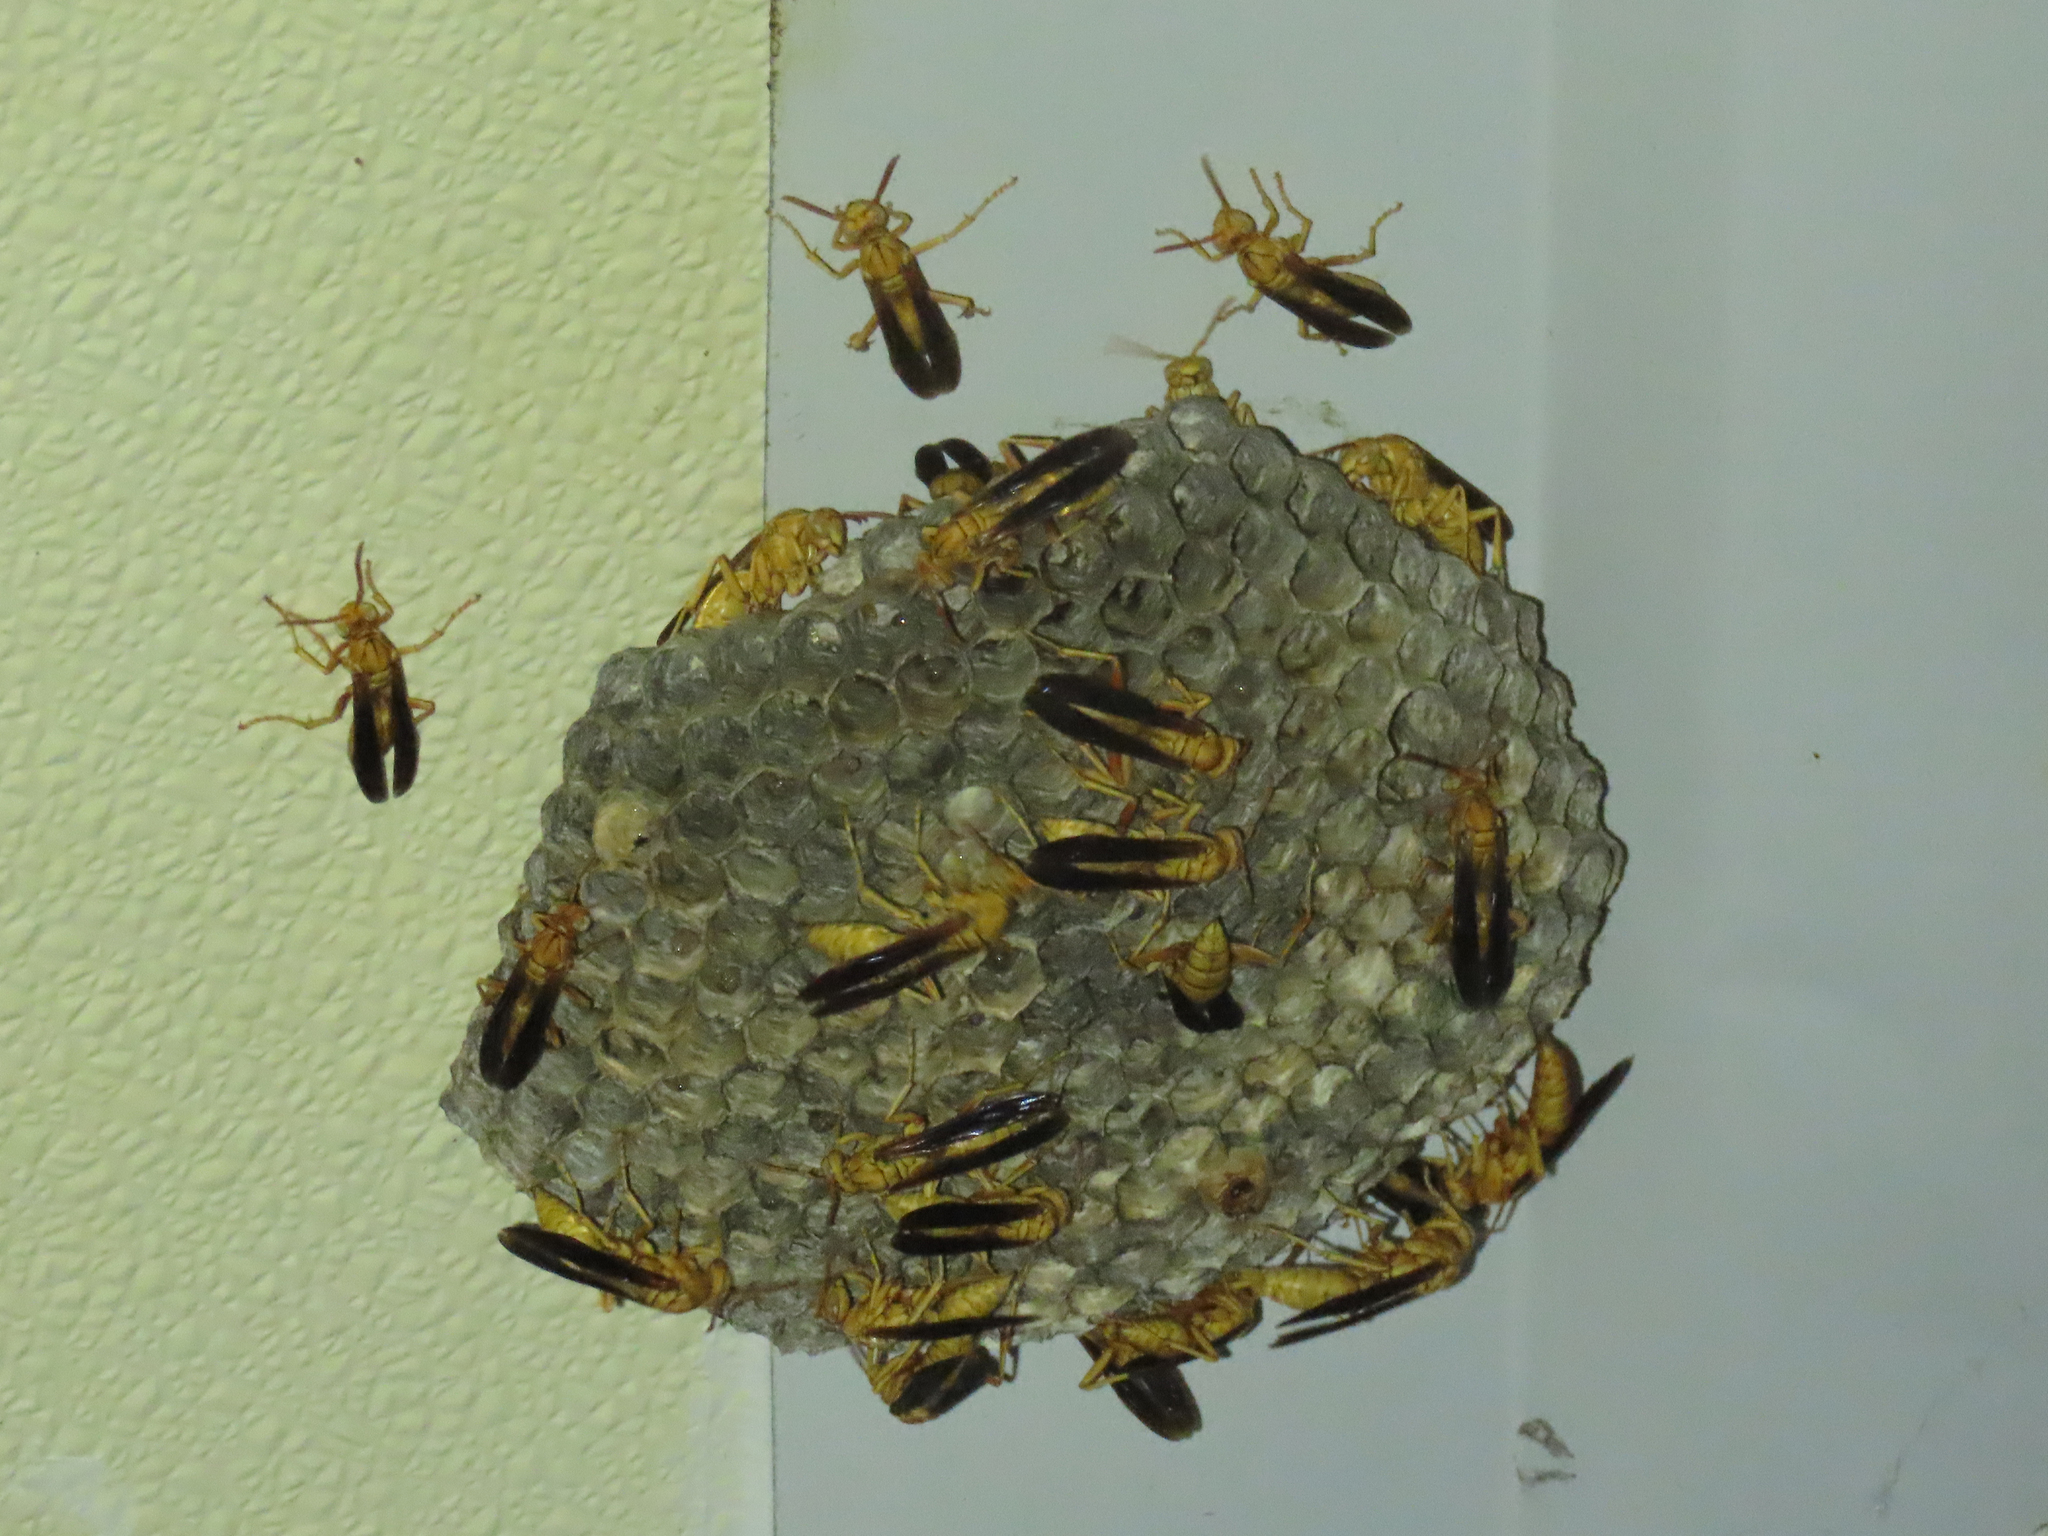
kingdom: Animalia
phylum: Arthropoda
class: Insecta
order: Hymenoptera
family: Eumenidae
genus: Polistes
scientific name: Polistes flavus
